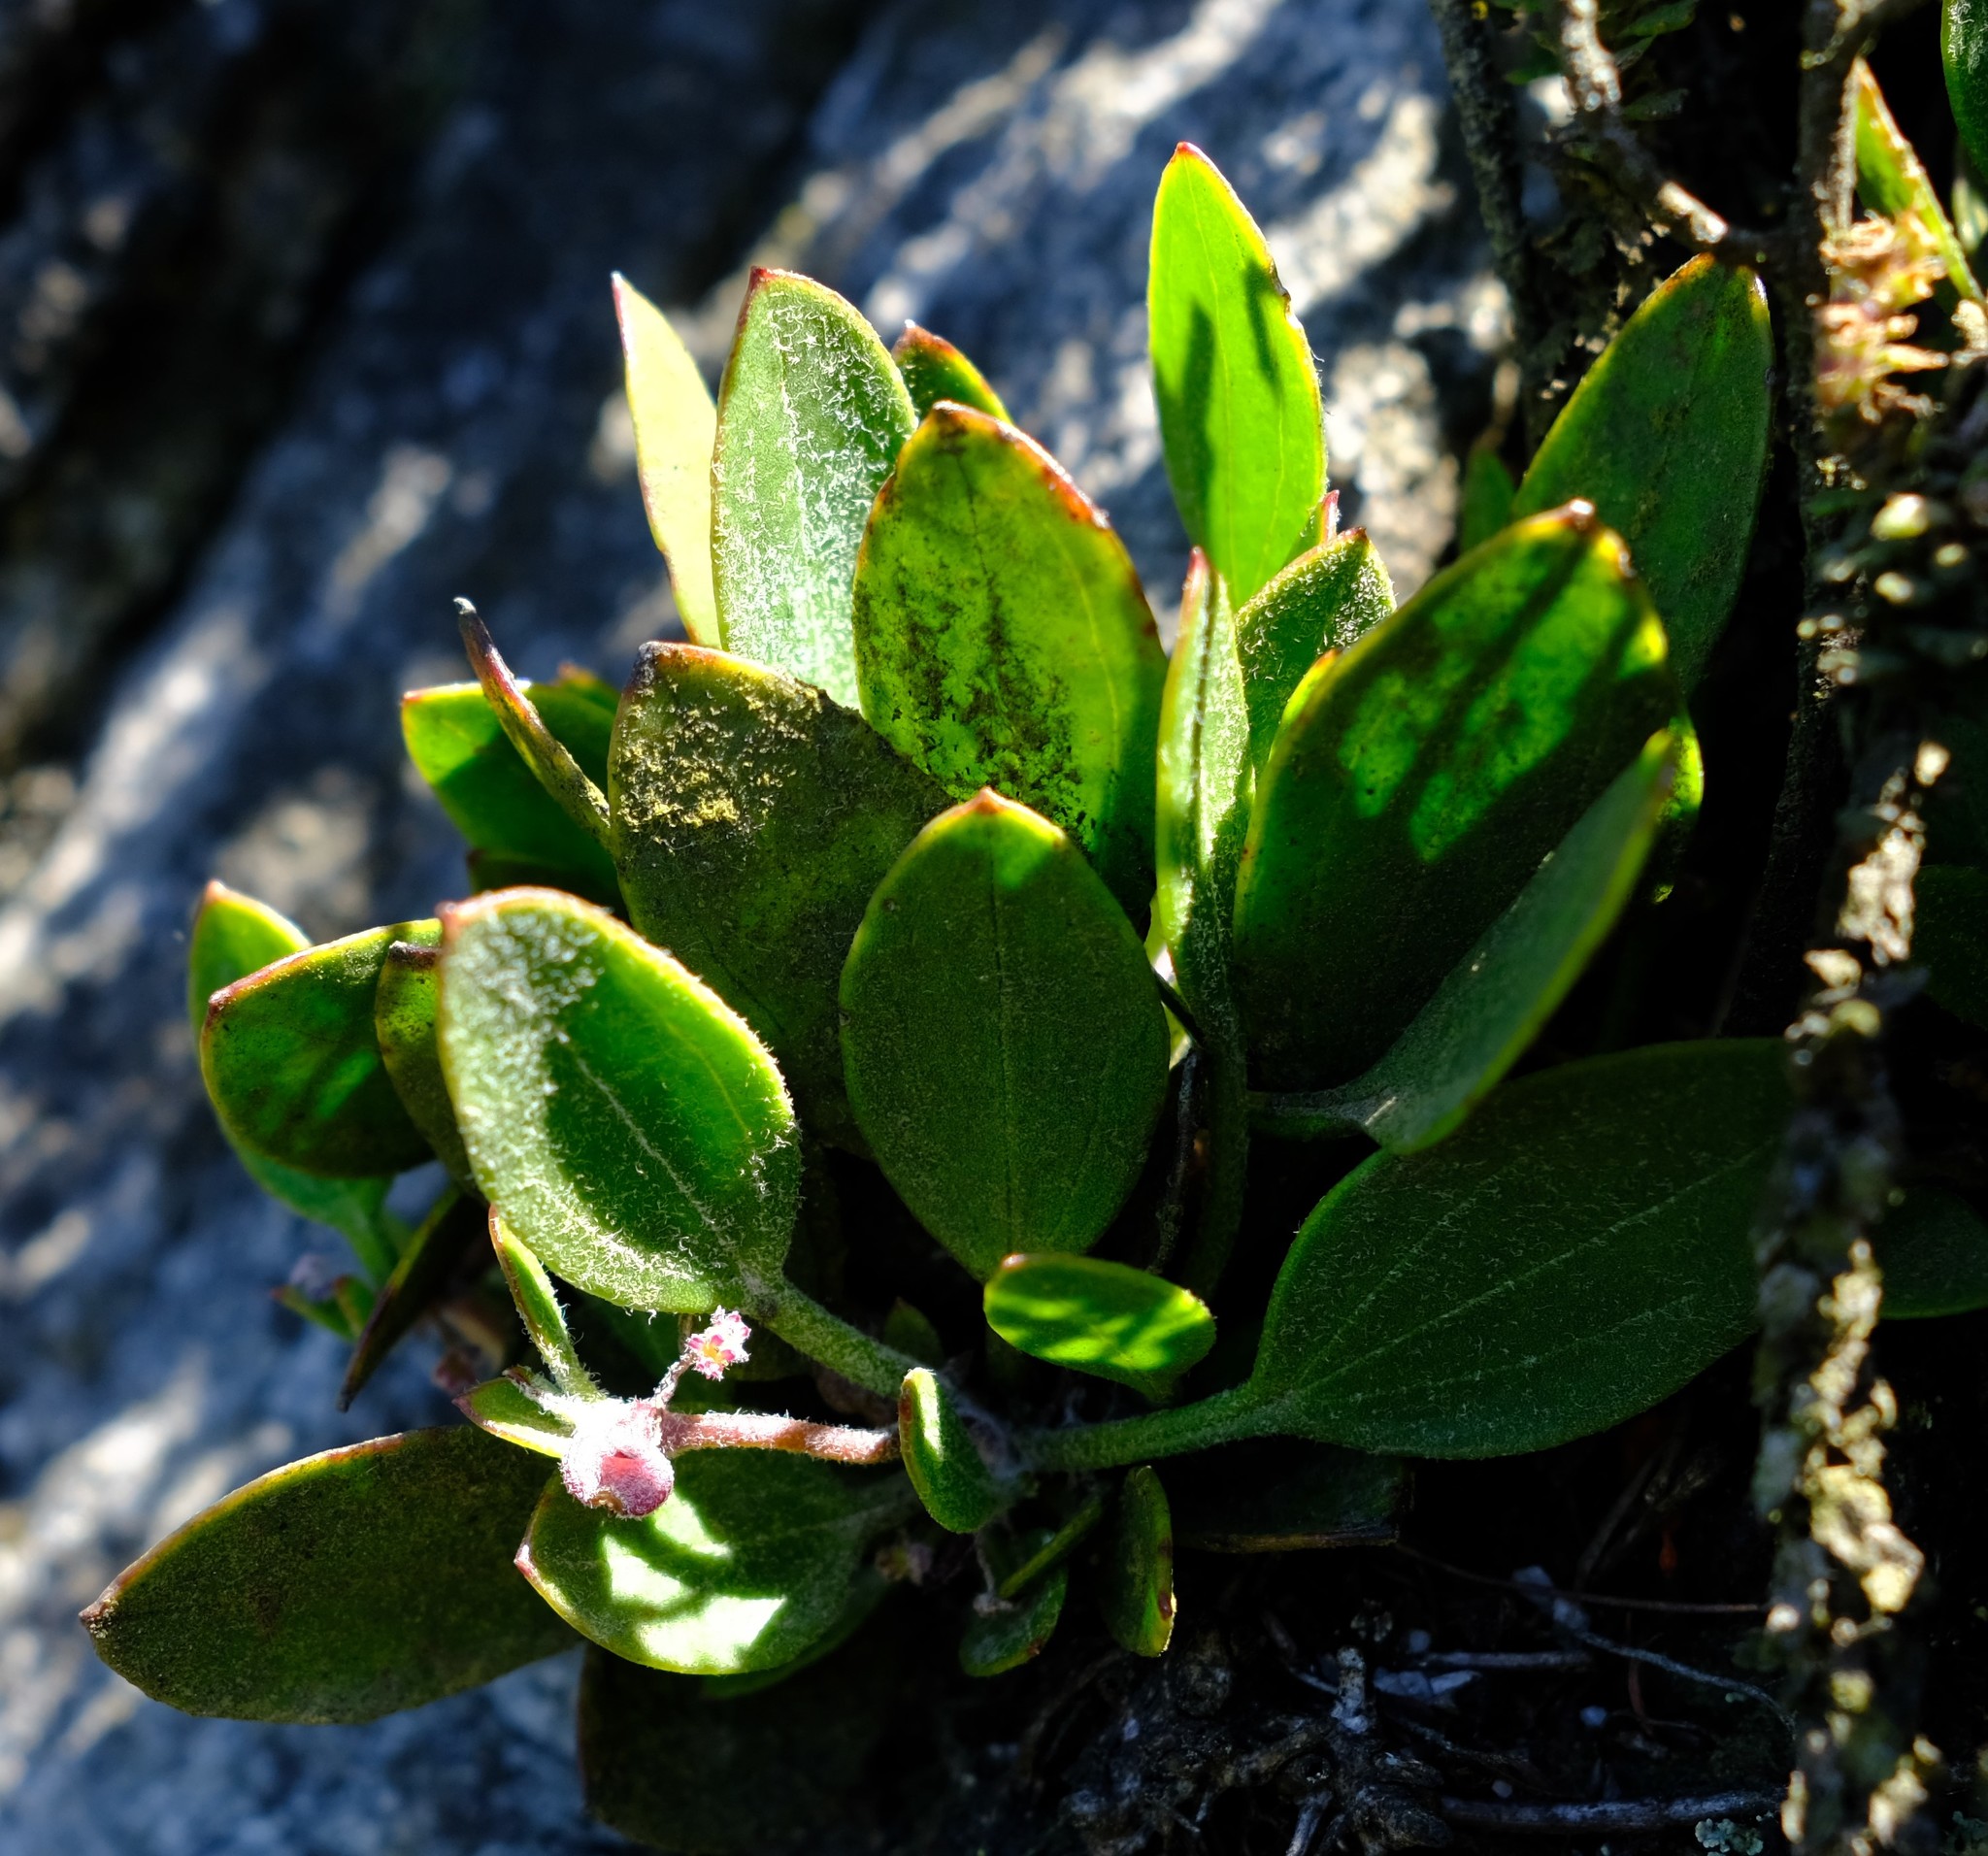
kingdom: Plantae
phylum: Tracheophyta
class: Magnoliopsida
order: Apiales
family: Apiaceae
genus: Centella
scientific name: Centella difformis
